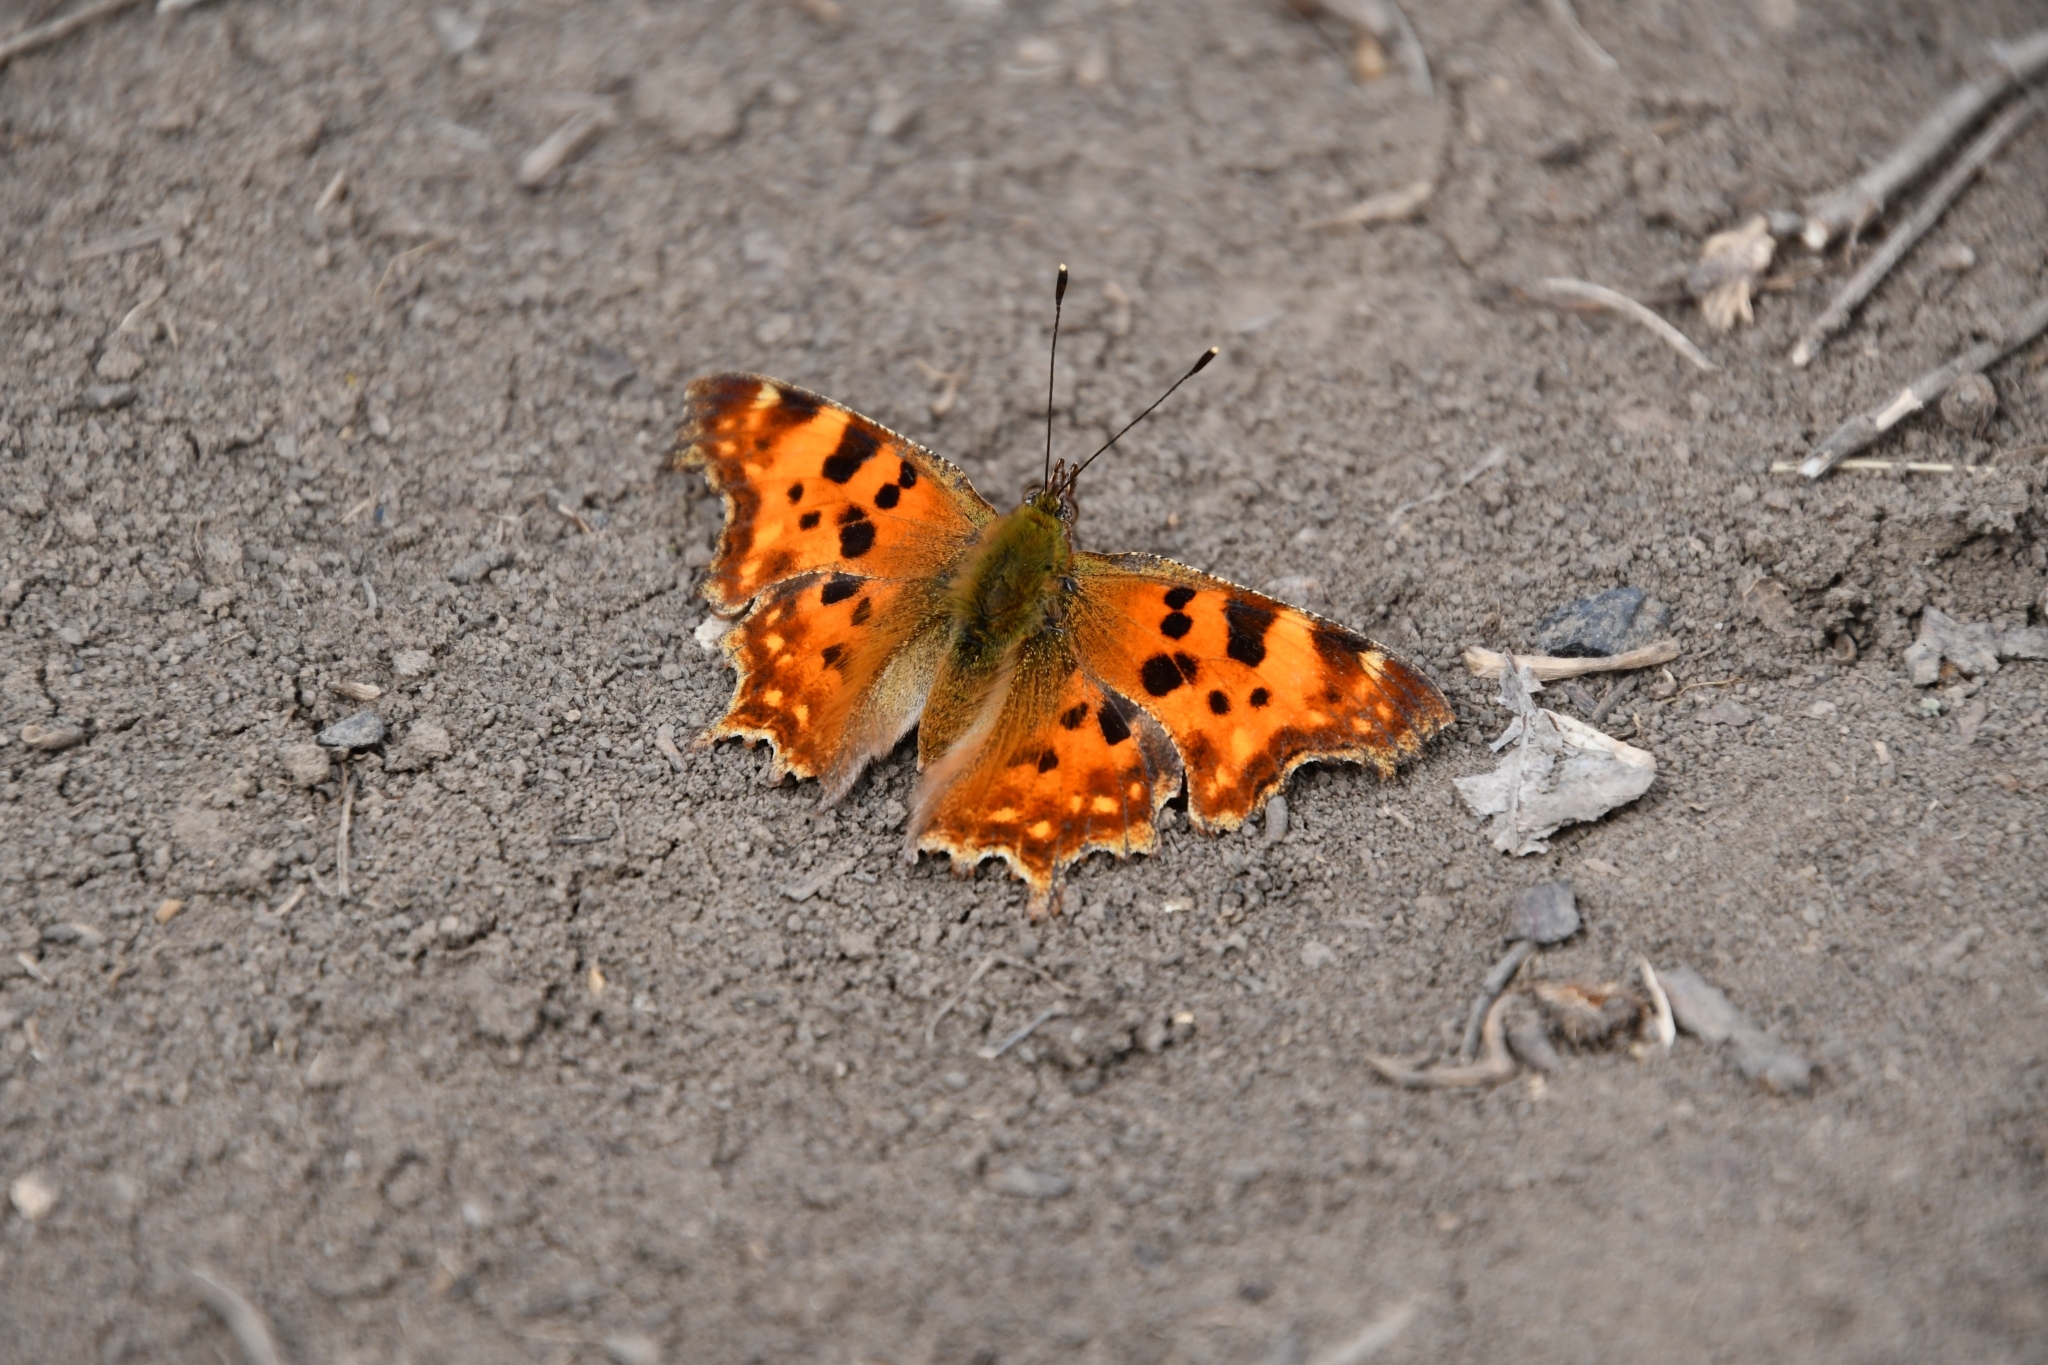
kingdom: Animalia
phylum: Arthropoda
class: Insecta
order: Lepidoptera
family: Nymphalidae
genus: Polygonia
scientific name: Polygonia c-album
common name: Comma
